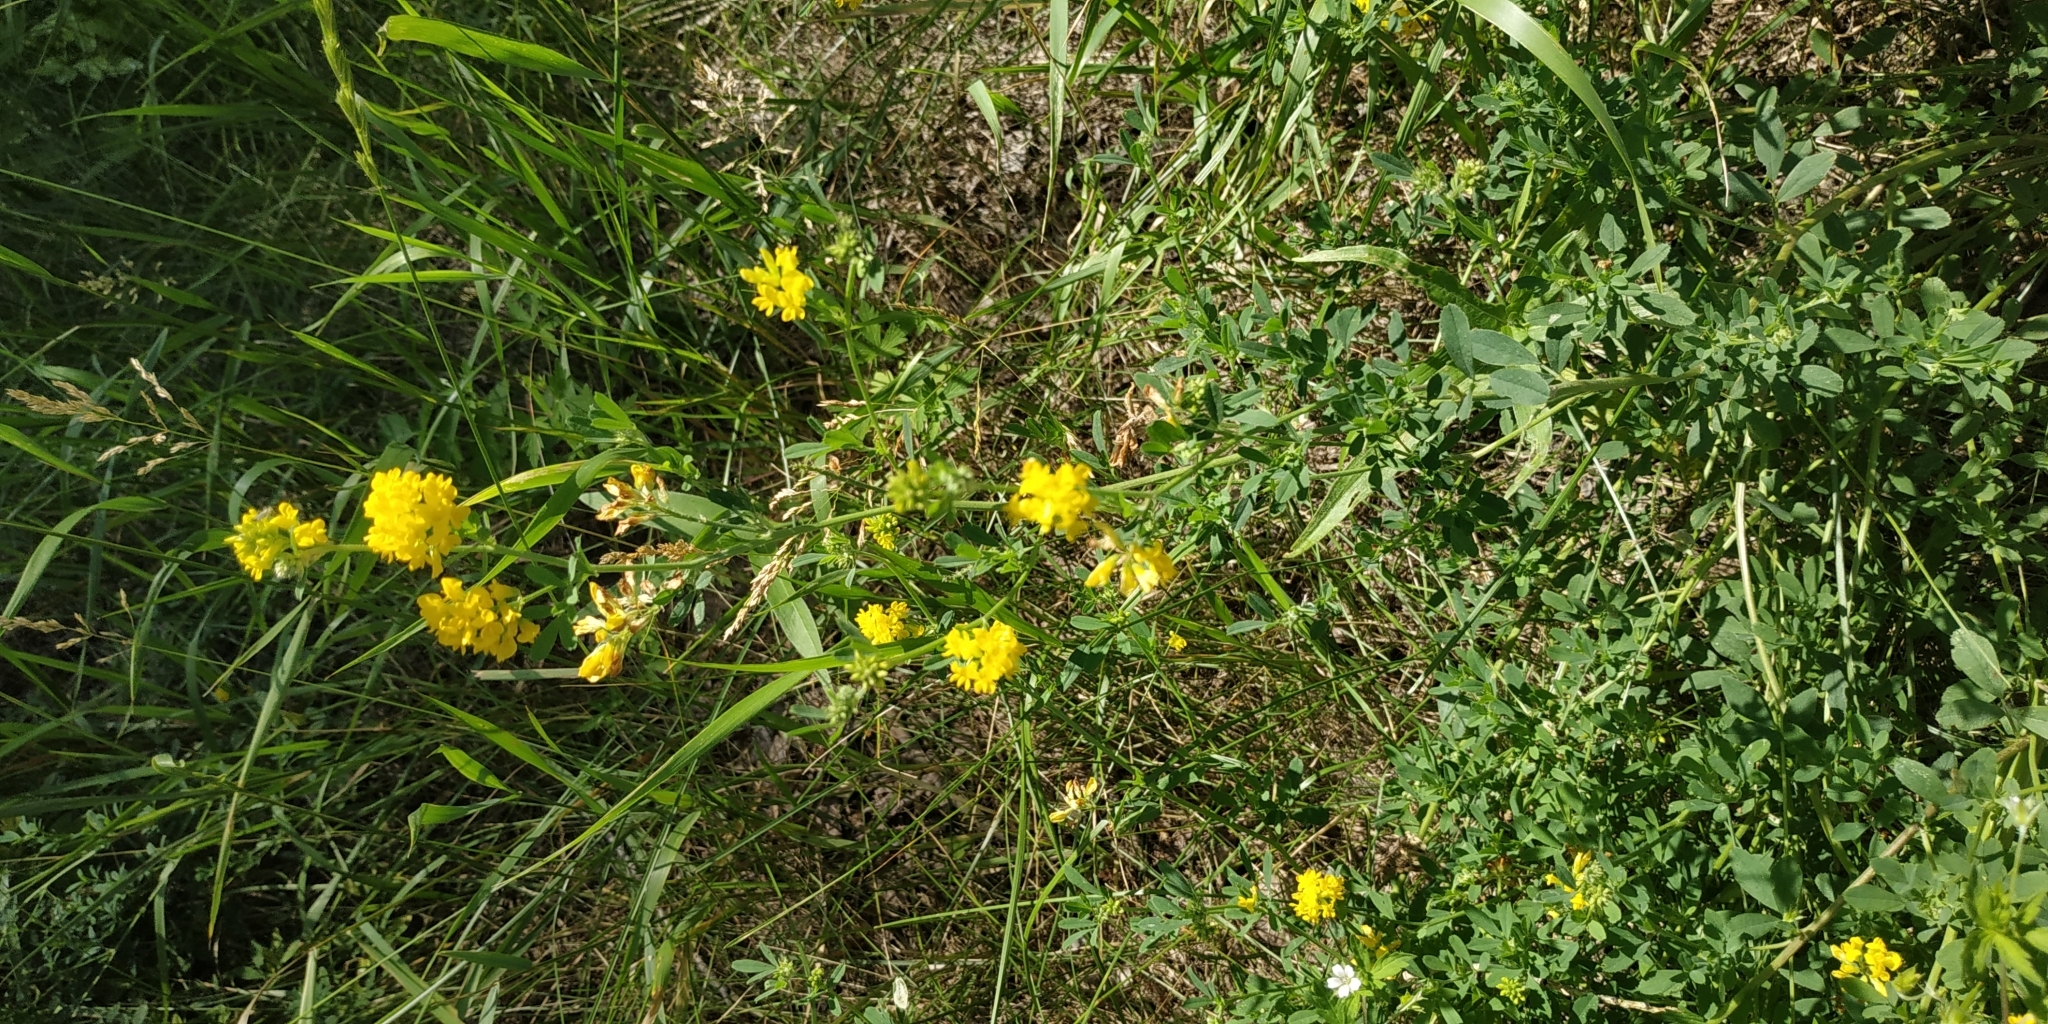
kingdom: Plantae
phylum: Tracheophyta
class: Magnoliopsida
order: Fabales
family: Fabaceae
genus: Medicago
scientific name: Medicago falcata
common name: Sickle medick
